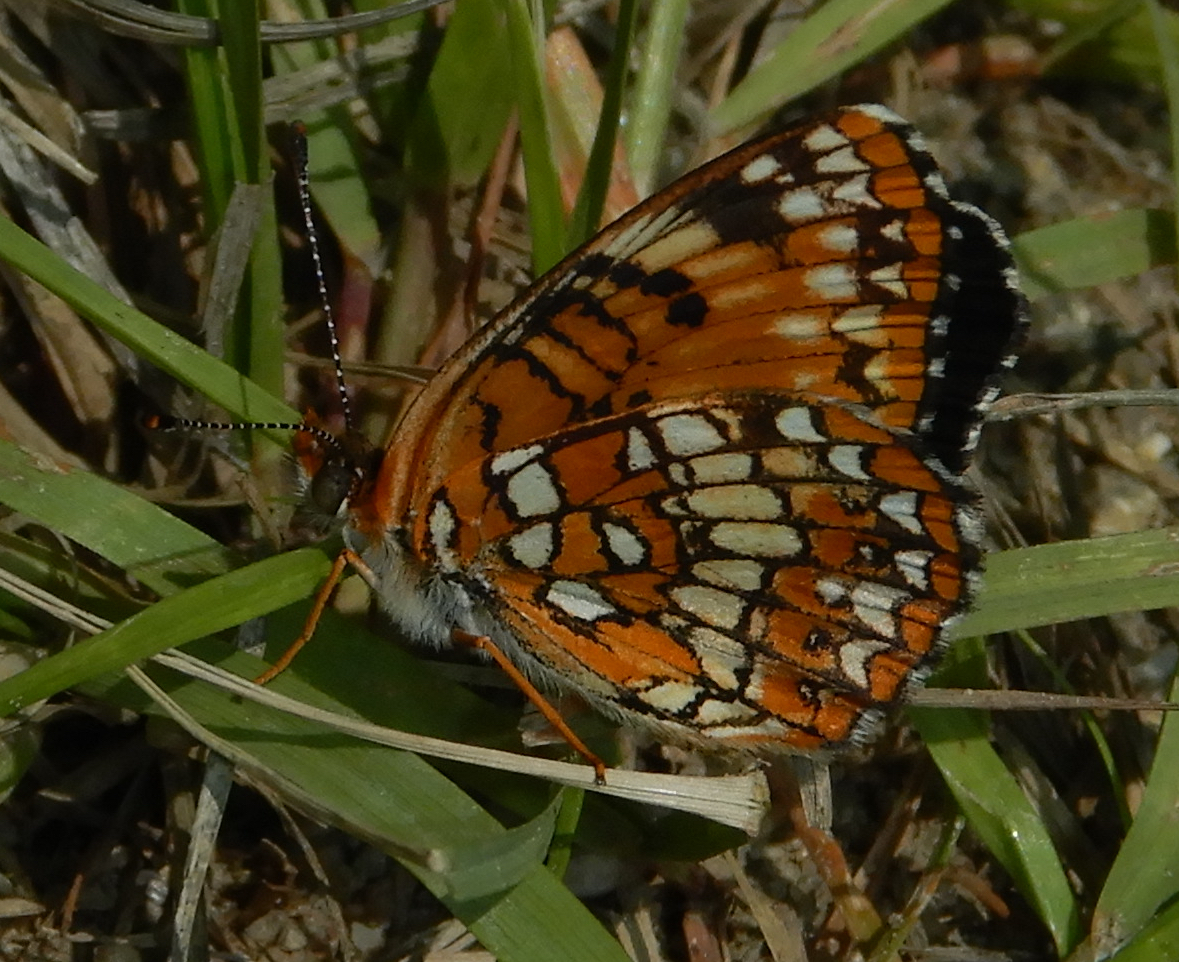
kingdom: Animalia
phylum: Arthropoda
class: Insecta
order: Lepidoptera
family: Nymphalidae
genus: Chlosyne
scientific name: Chlosyne harrisii
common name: Harris's checkerspot
